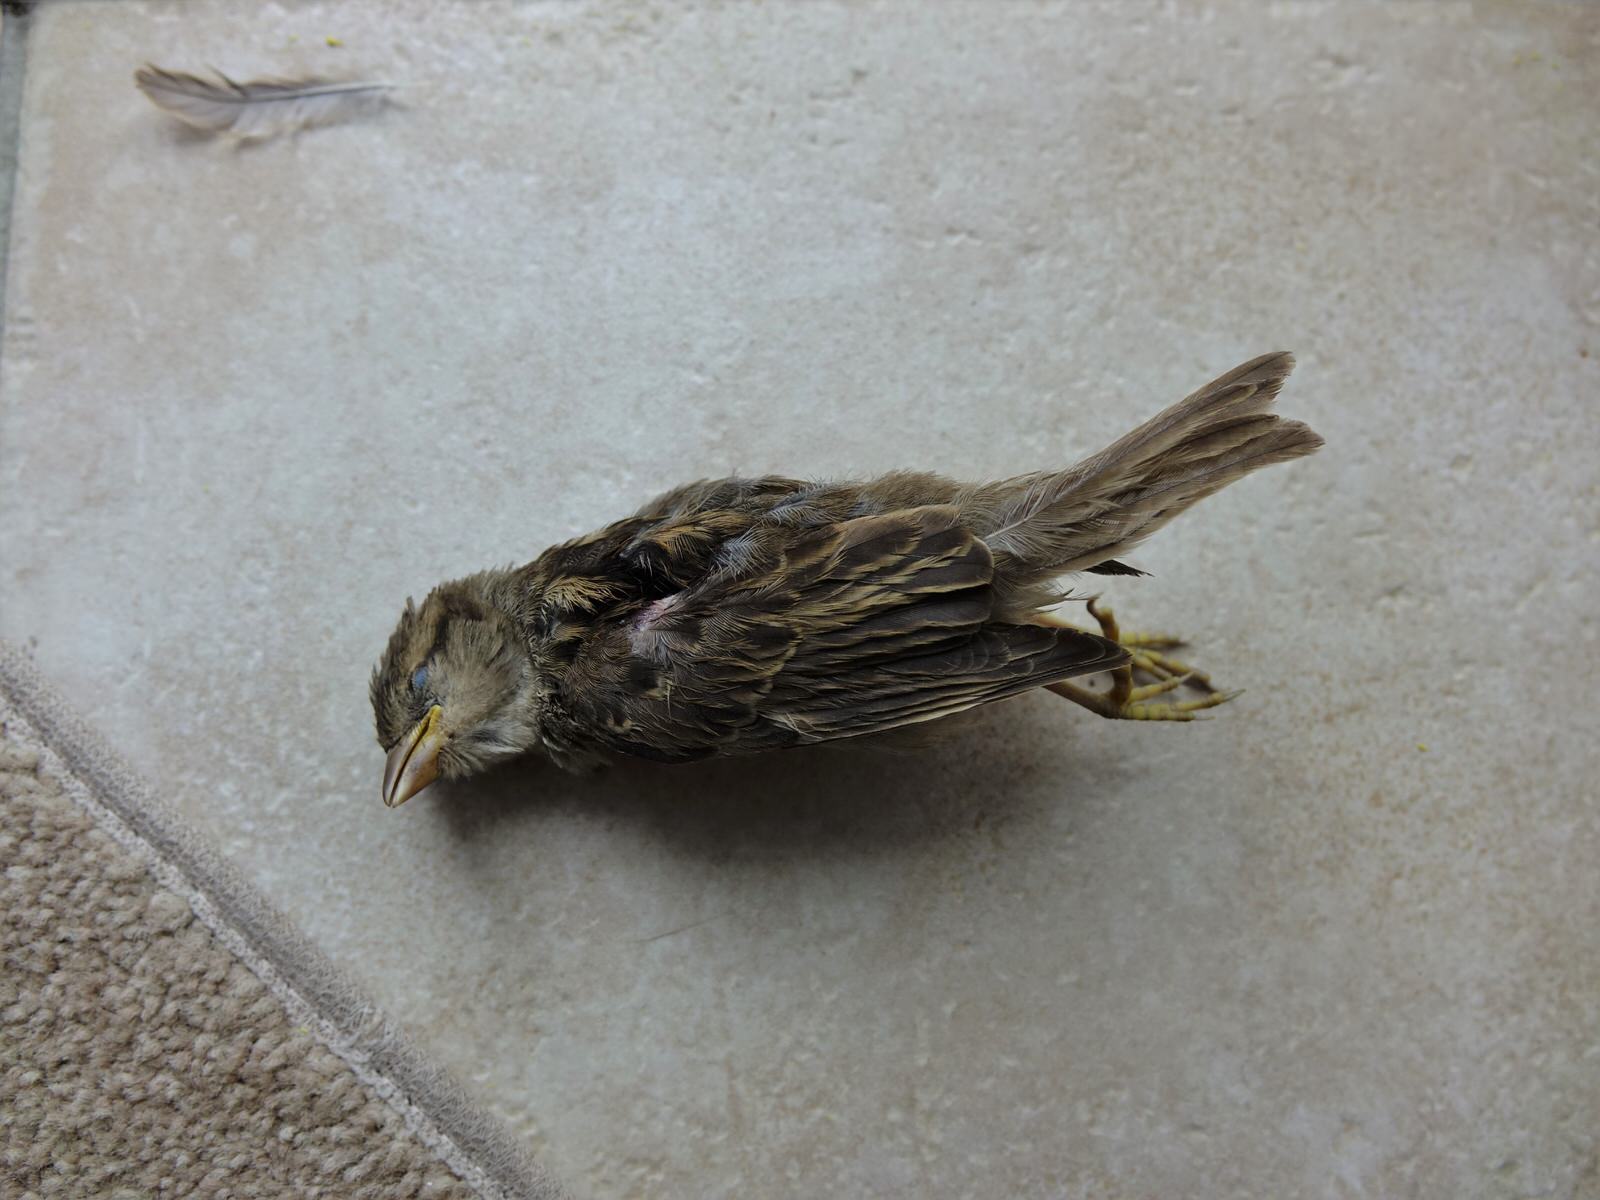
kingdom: Animalia
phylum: Chordata
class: Aves
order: Passeriformes
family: Passeridae
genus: Passer
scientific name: Passer domesticus
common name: House sparrow
